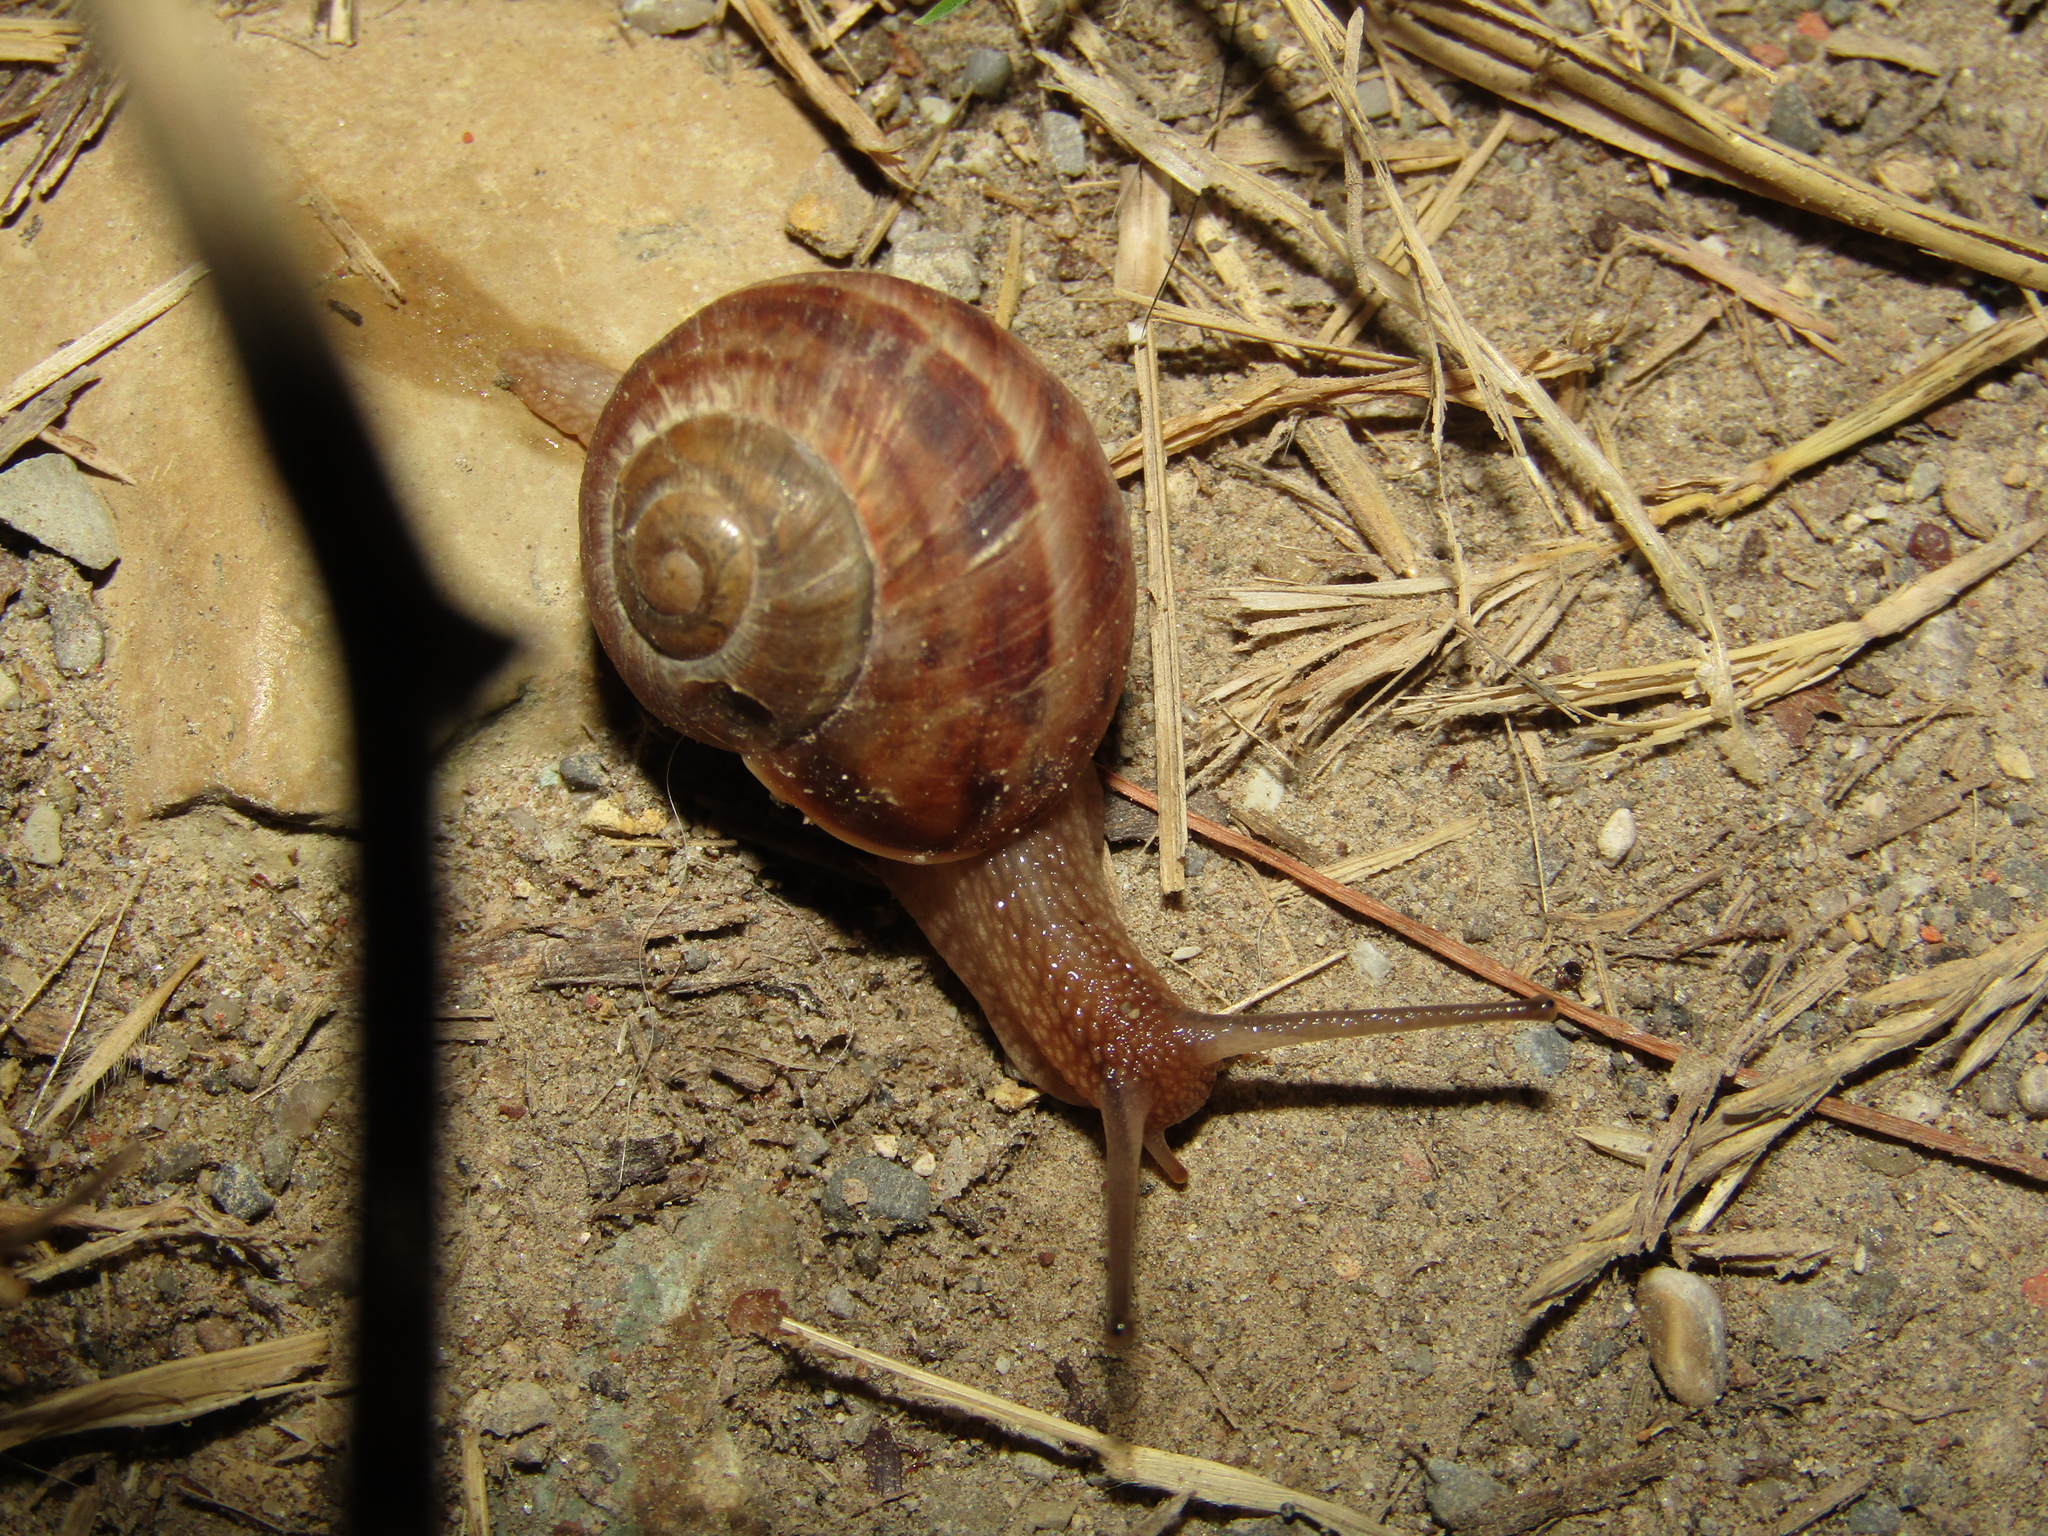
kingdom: Animalia
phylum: Mollusca
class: Gastropoda
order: Stylommatophora
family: Helicidae
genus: Helix
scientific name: Helix albescens
